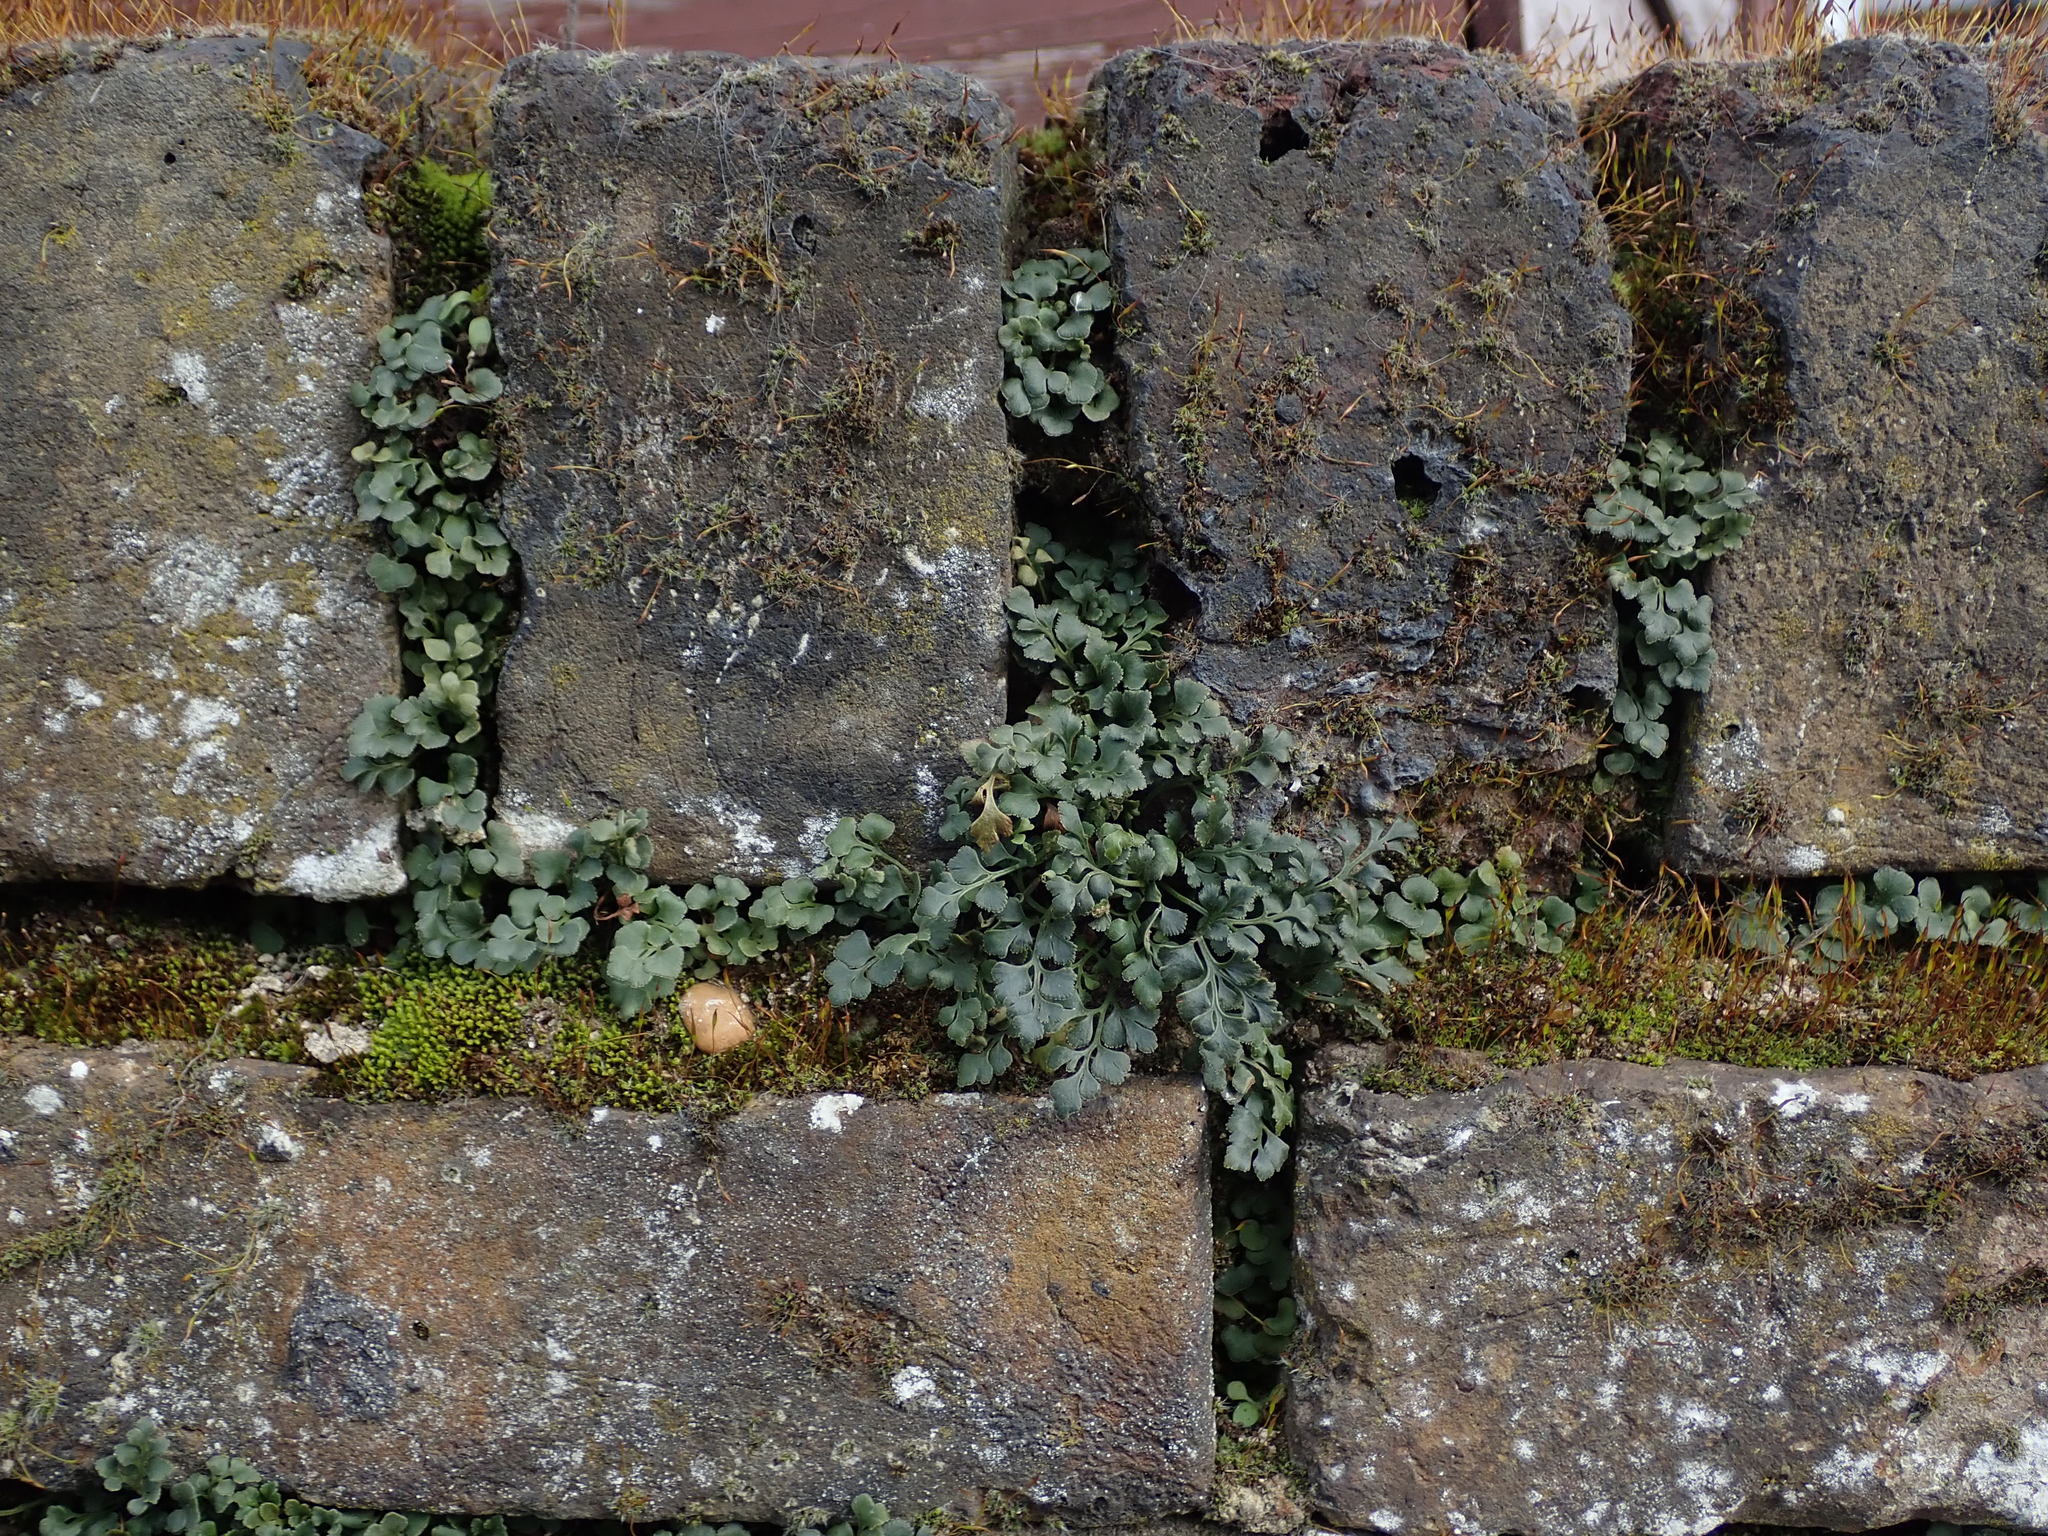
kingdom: Plantae
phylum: Tracheophyta
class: Polypodiopsida
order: Polypodiales
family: Aspleniaceae
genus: Asplenium
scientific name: Asplenium ruta-muraria
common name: Wall-rue
